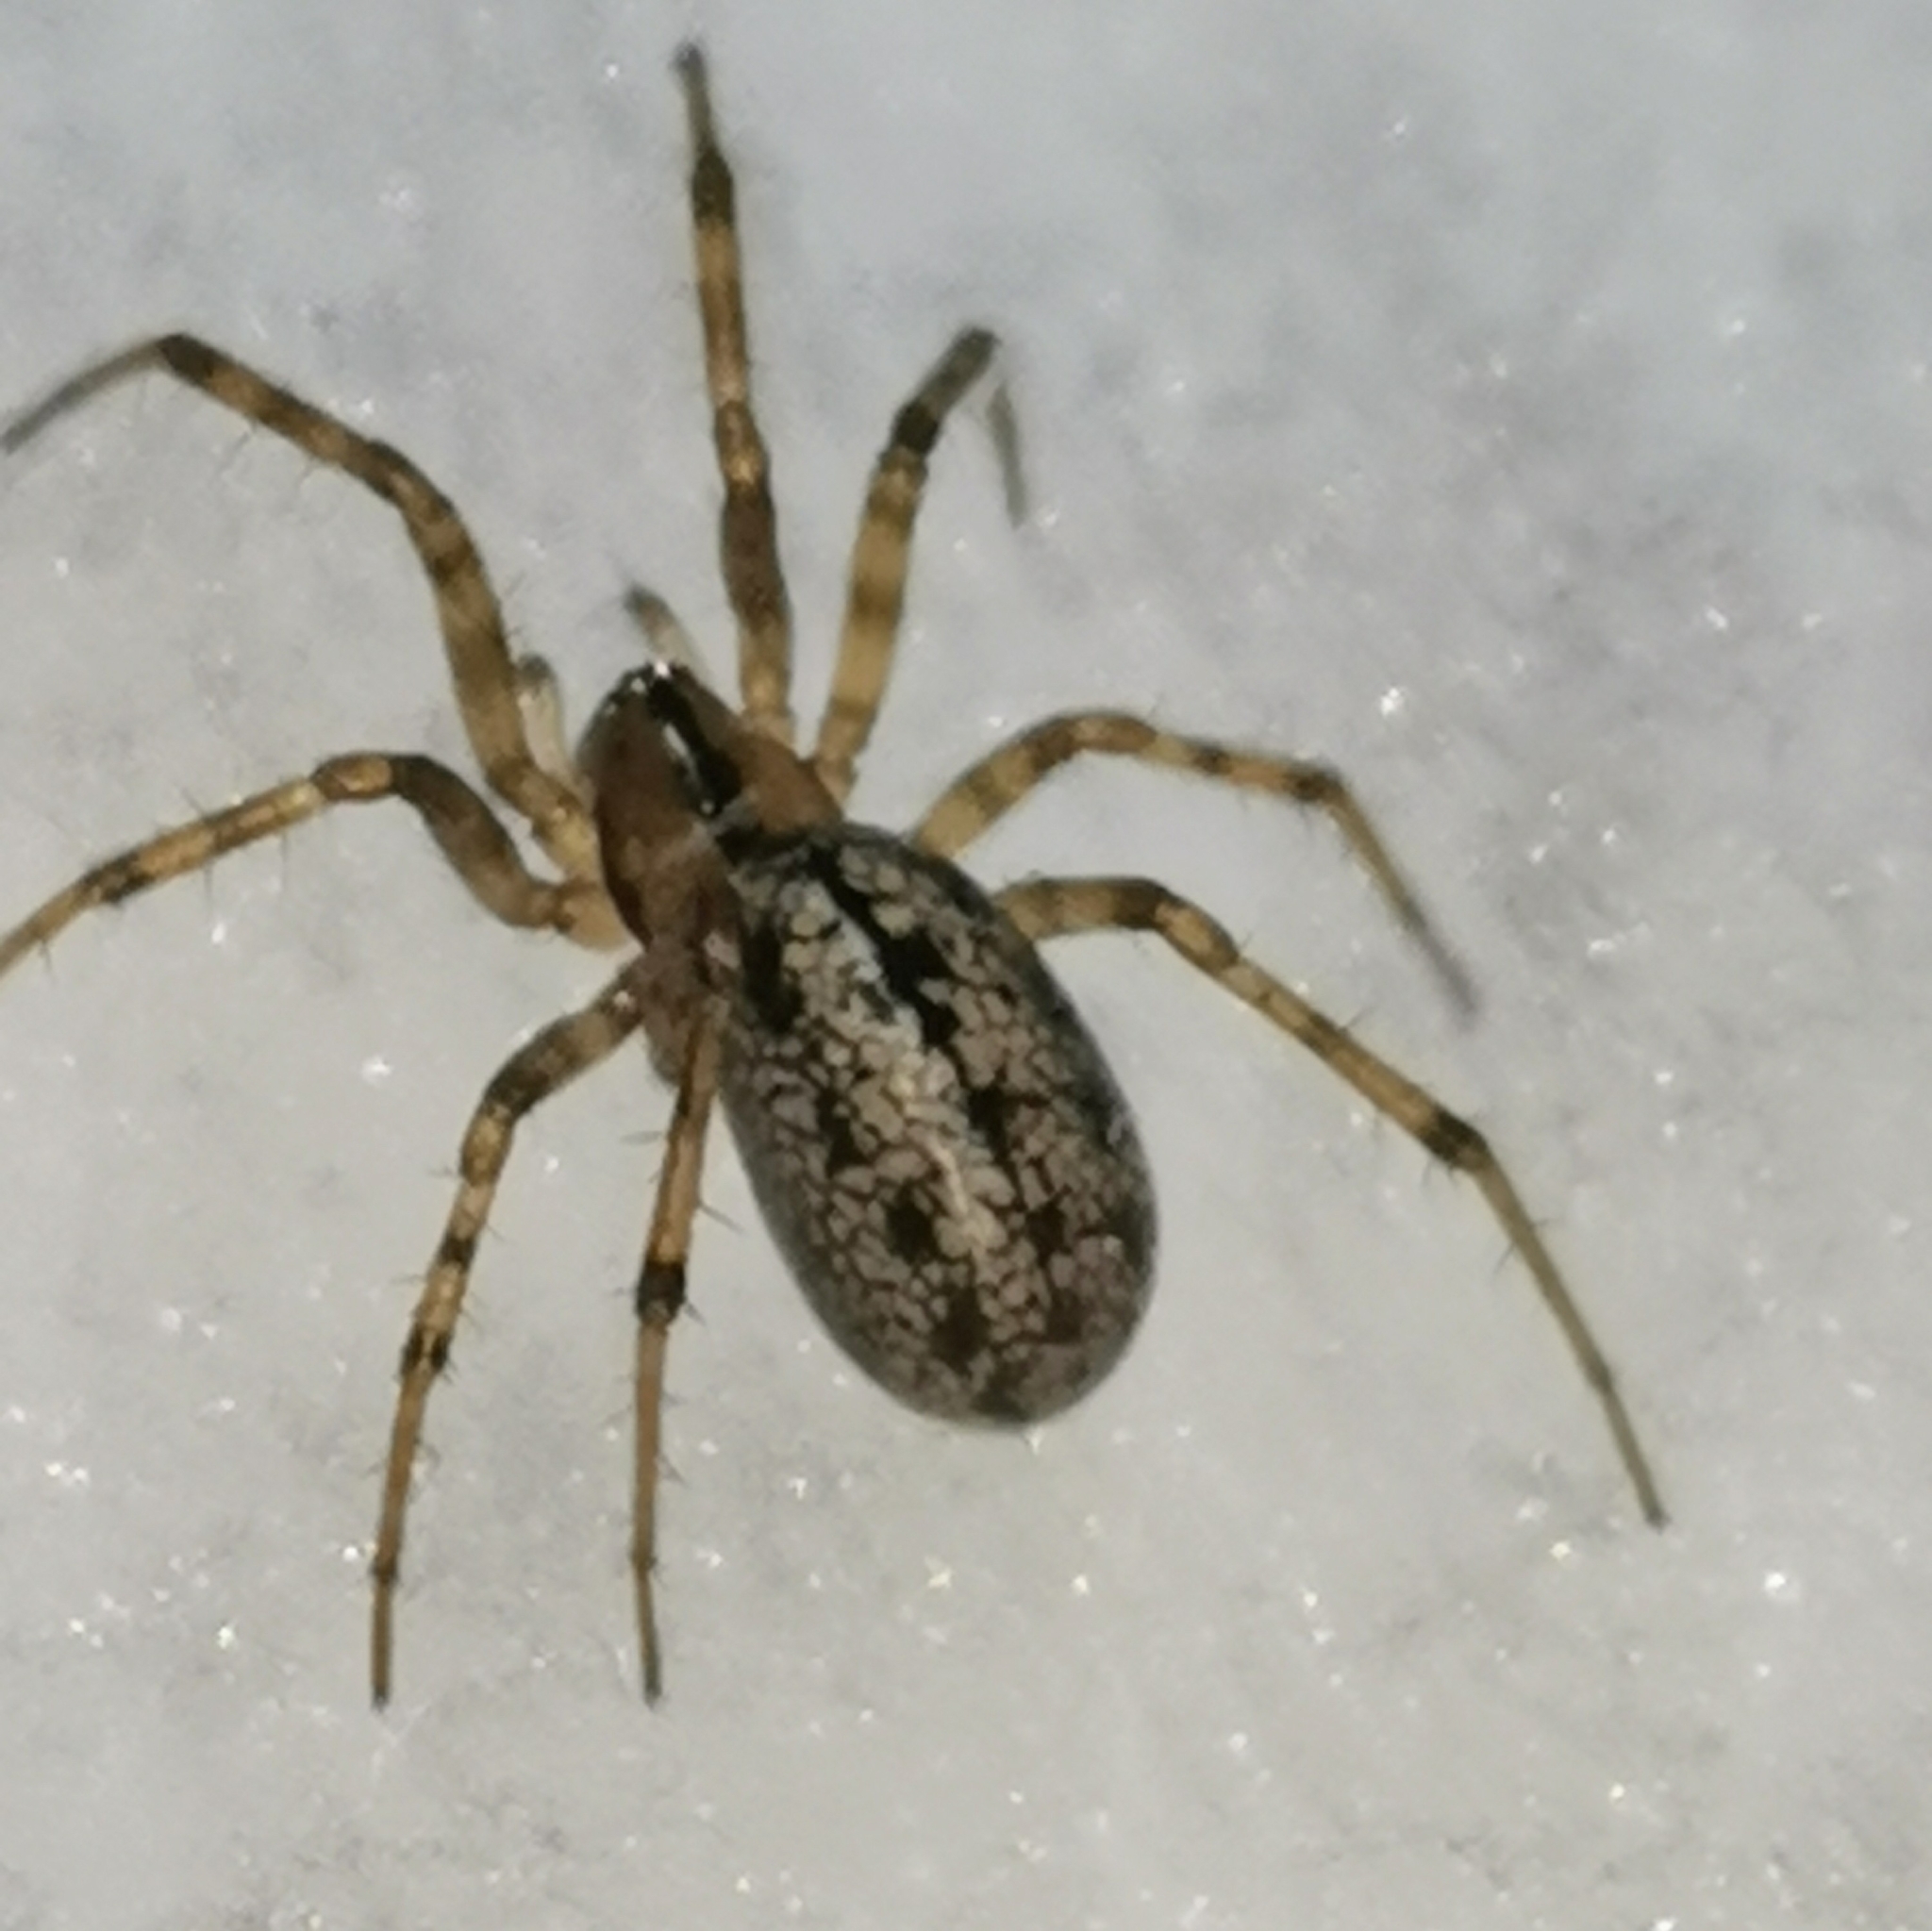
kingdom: Animalia
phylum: Arthropoda
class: Arachnida
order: Araneae
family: Linyphiidae
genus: Stemonyphantes
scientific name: Stemonyphantes lineatus
